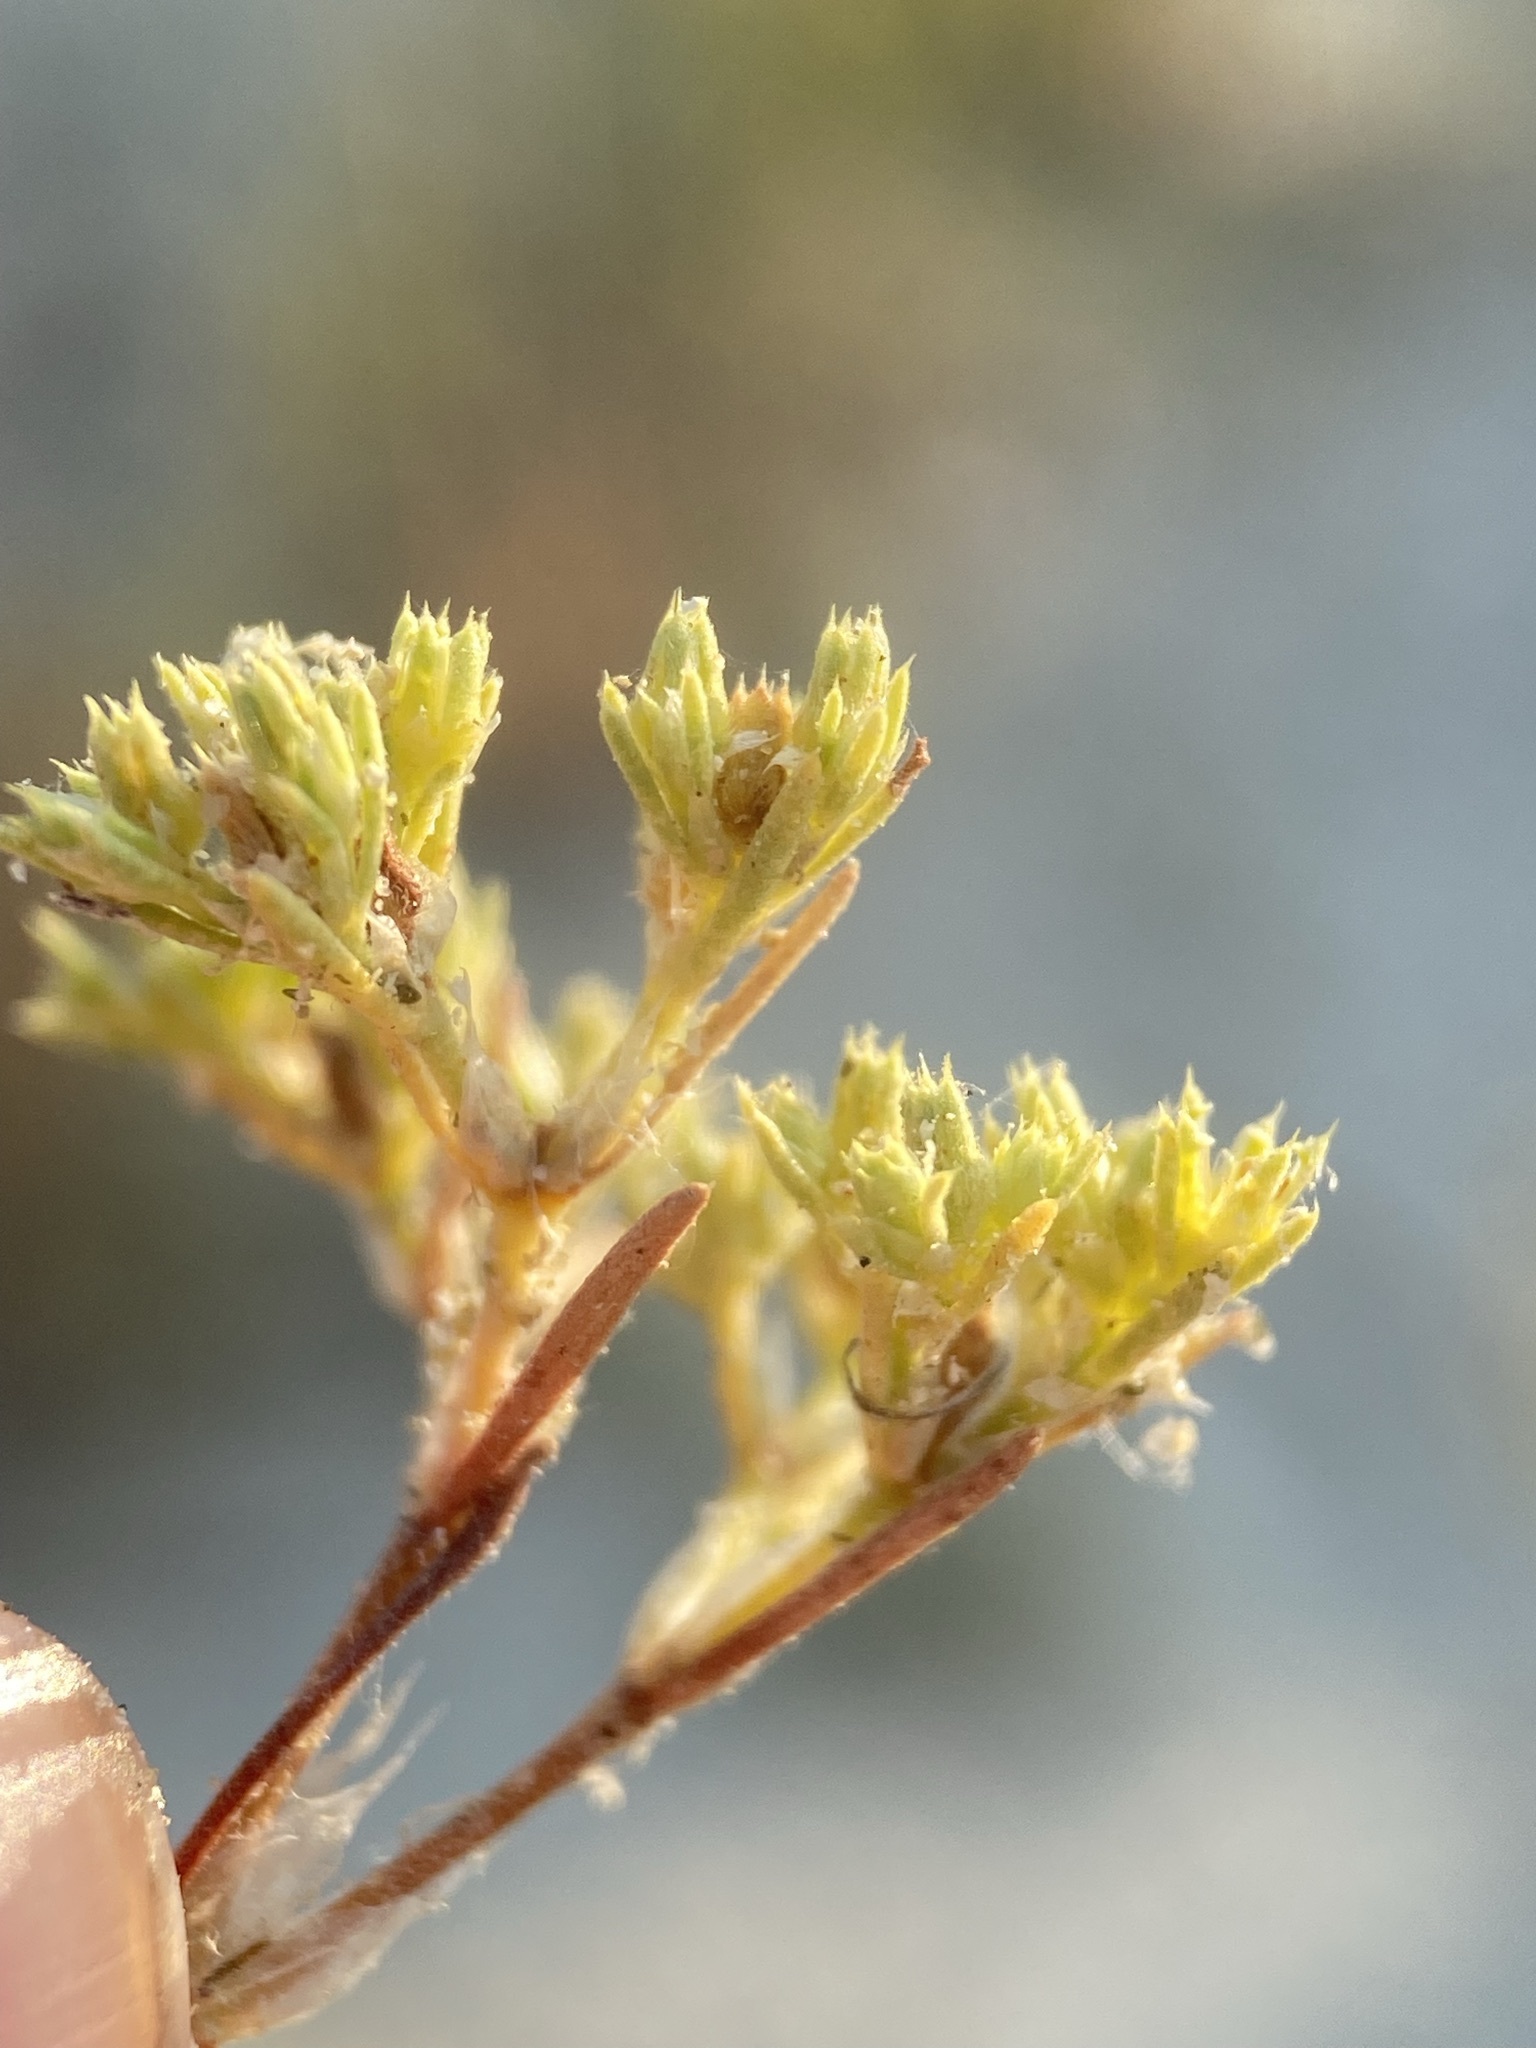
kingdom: Plantae
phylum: Tracheophyta
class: Magnoliopsida
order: Caryophyllales
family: Caryophyllaceae
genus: Paronychia
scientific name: Paronychia jamesii
